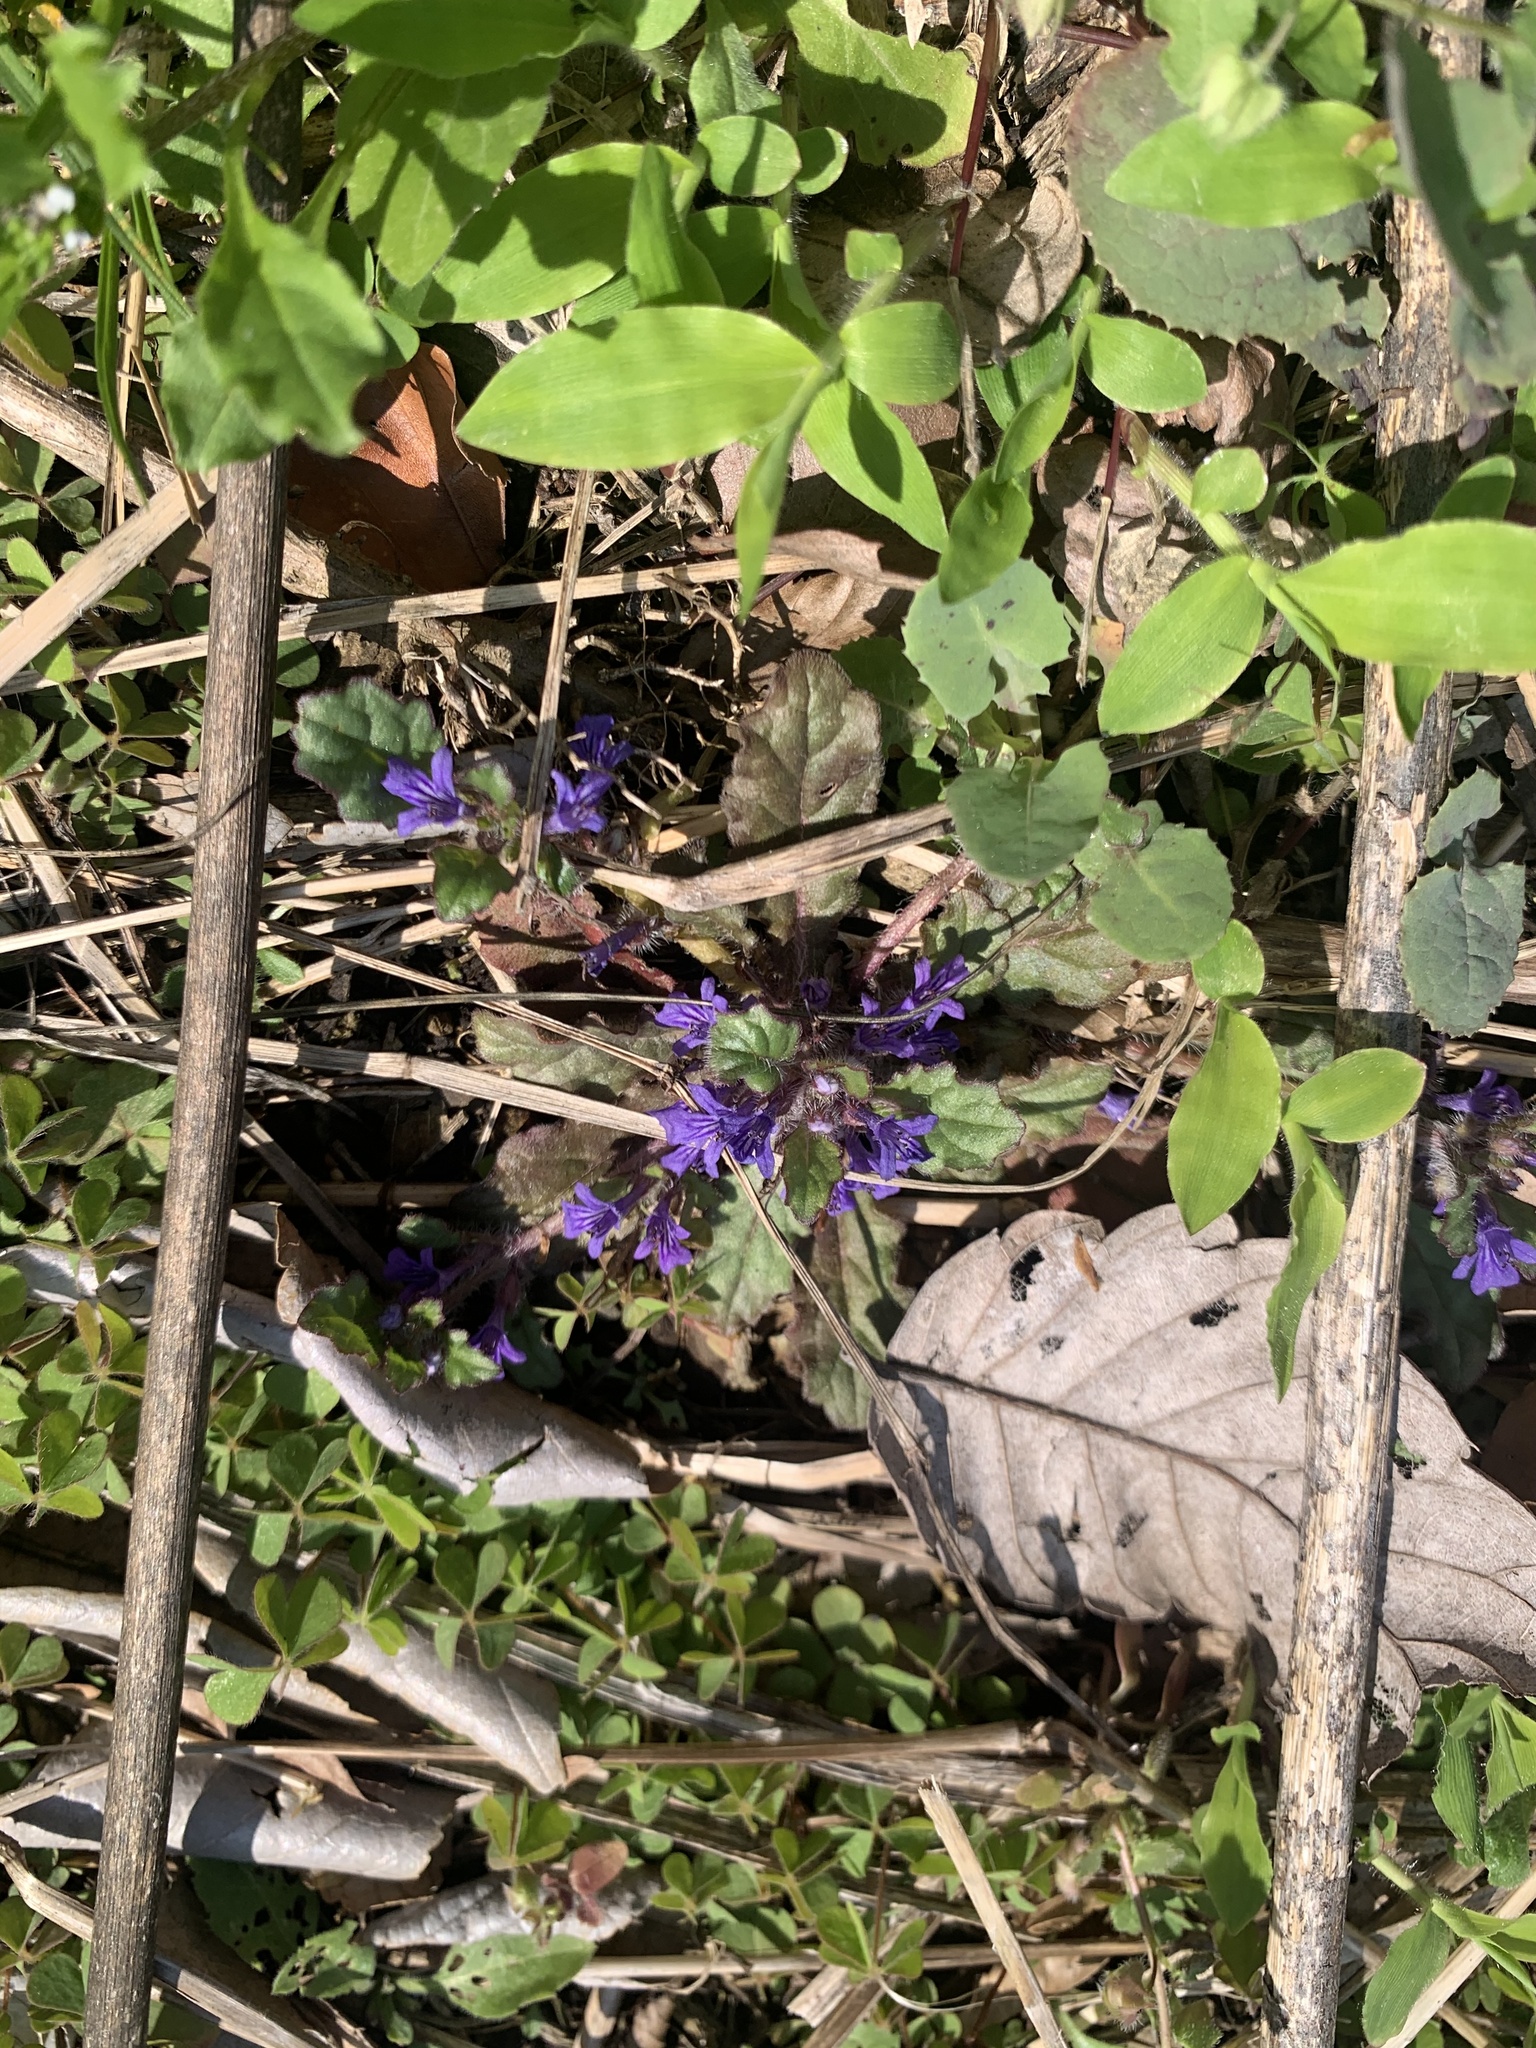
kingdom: Plantae
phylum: Tracheophyta
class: Magnoliopsida
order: Lamiales
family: Lamiaceae
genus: Ajuga
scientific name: Ajuga decumbens
